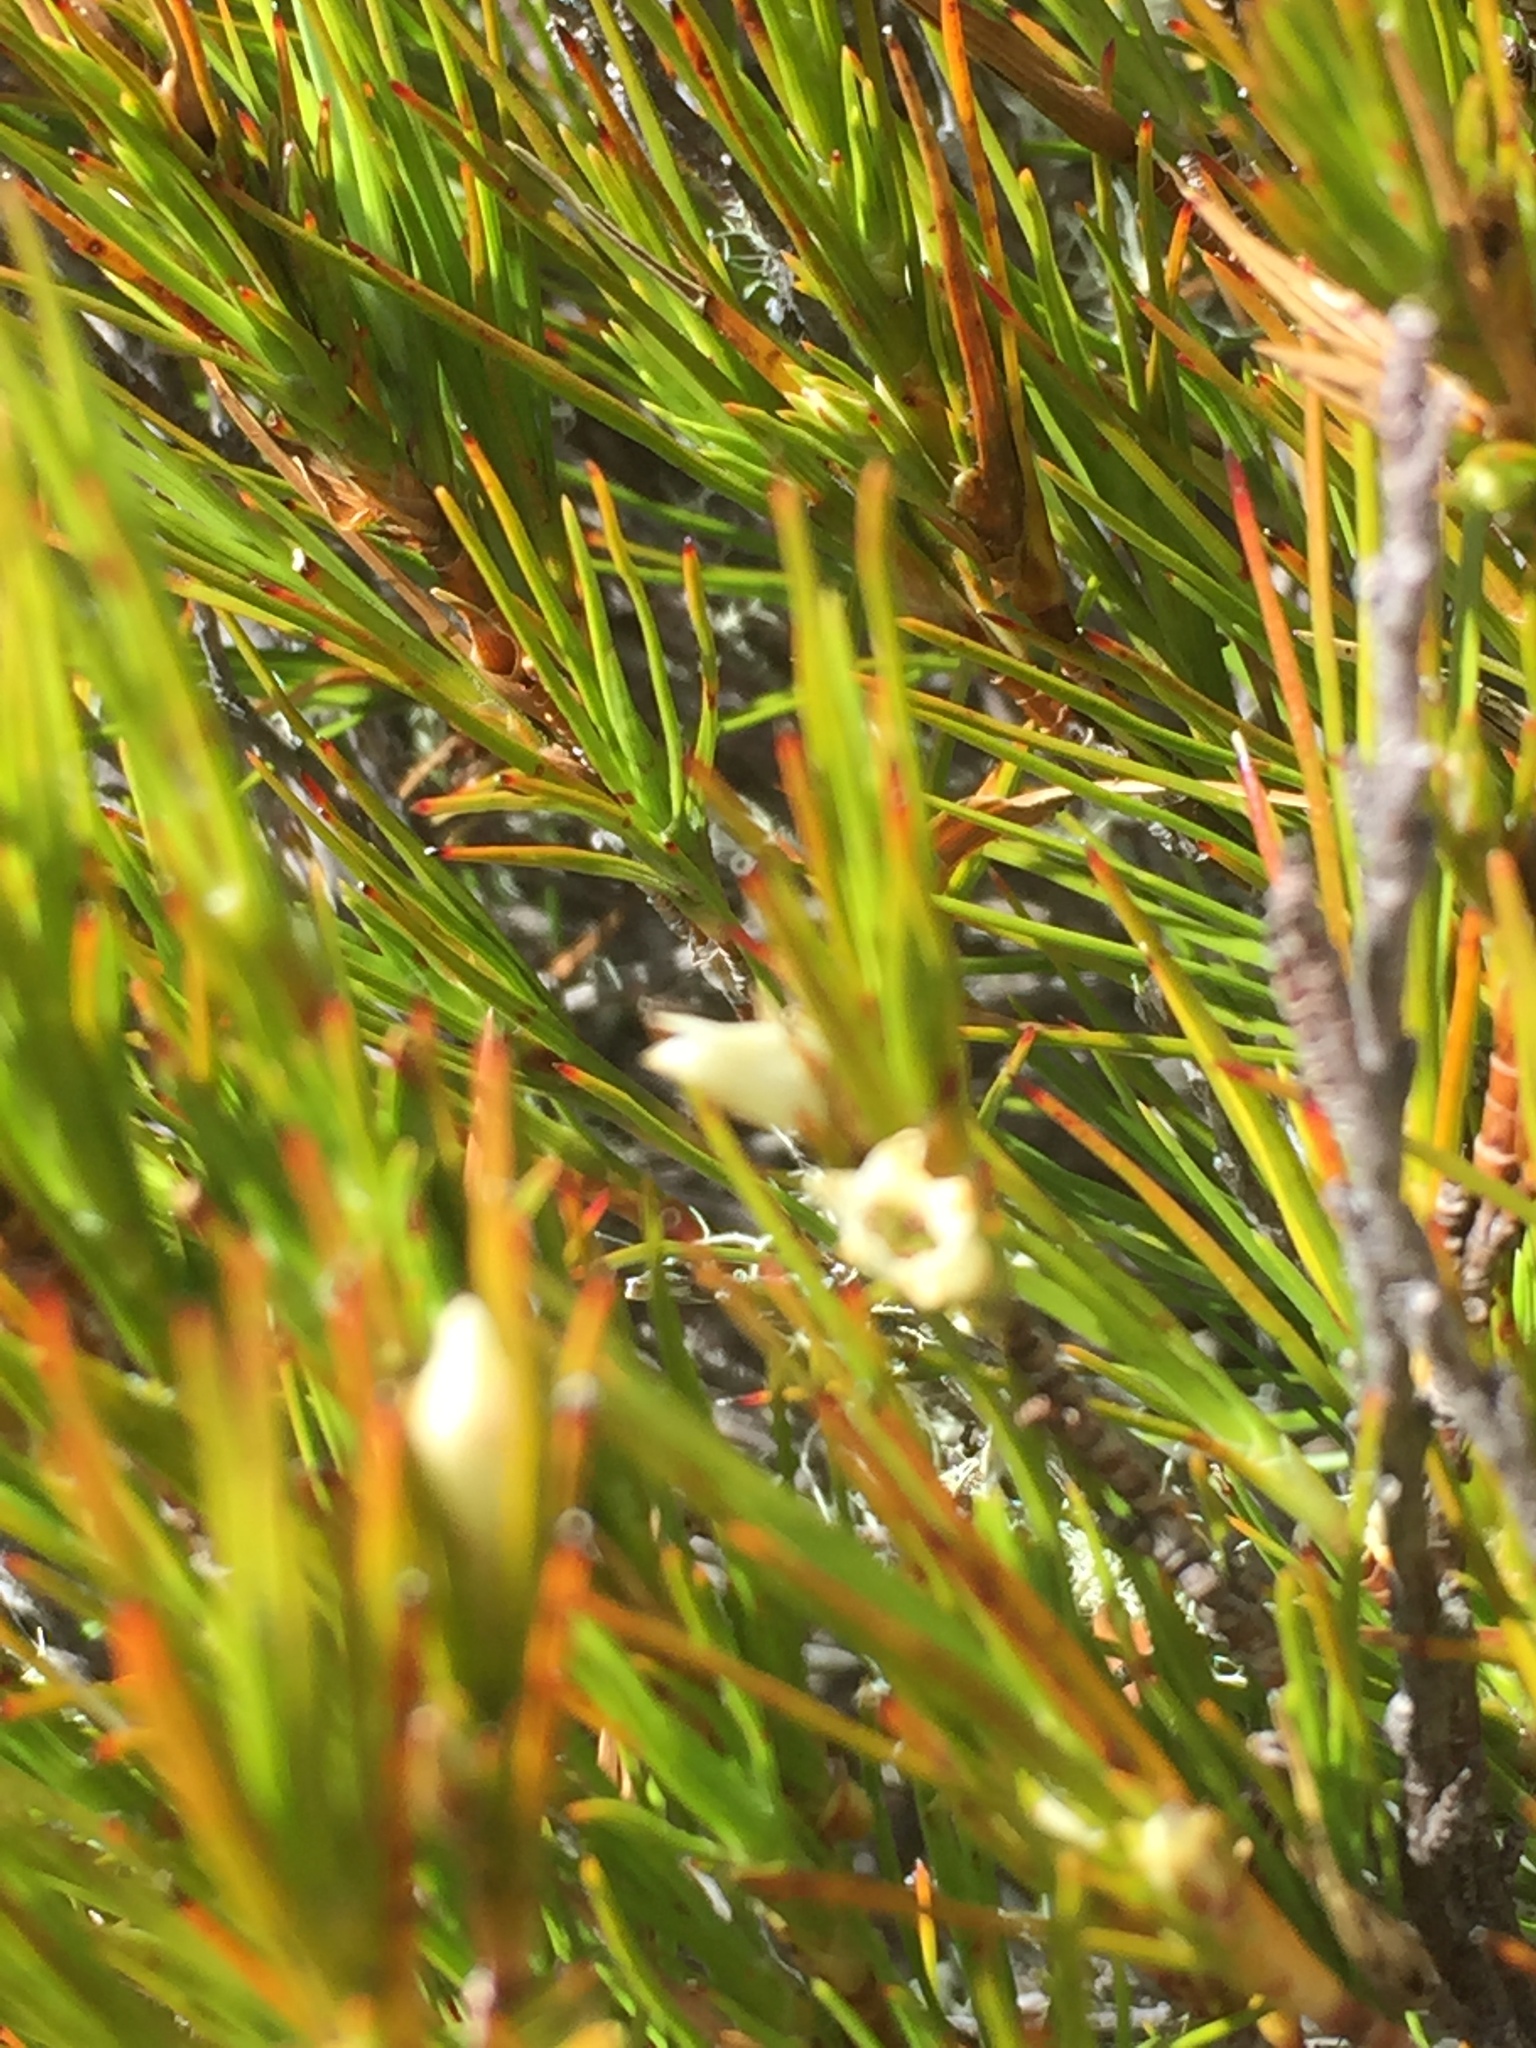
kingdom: Plantae
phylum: Tracheophyta
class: Magnoliopsida
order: Ericales
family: Ericaceae
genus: Dracophyllum
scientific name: Dracophyllum rosmarinifolium
